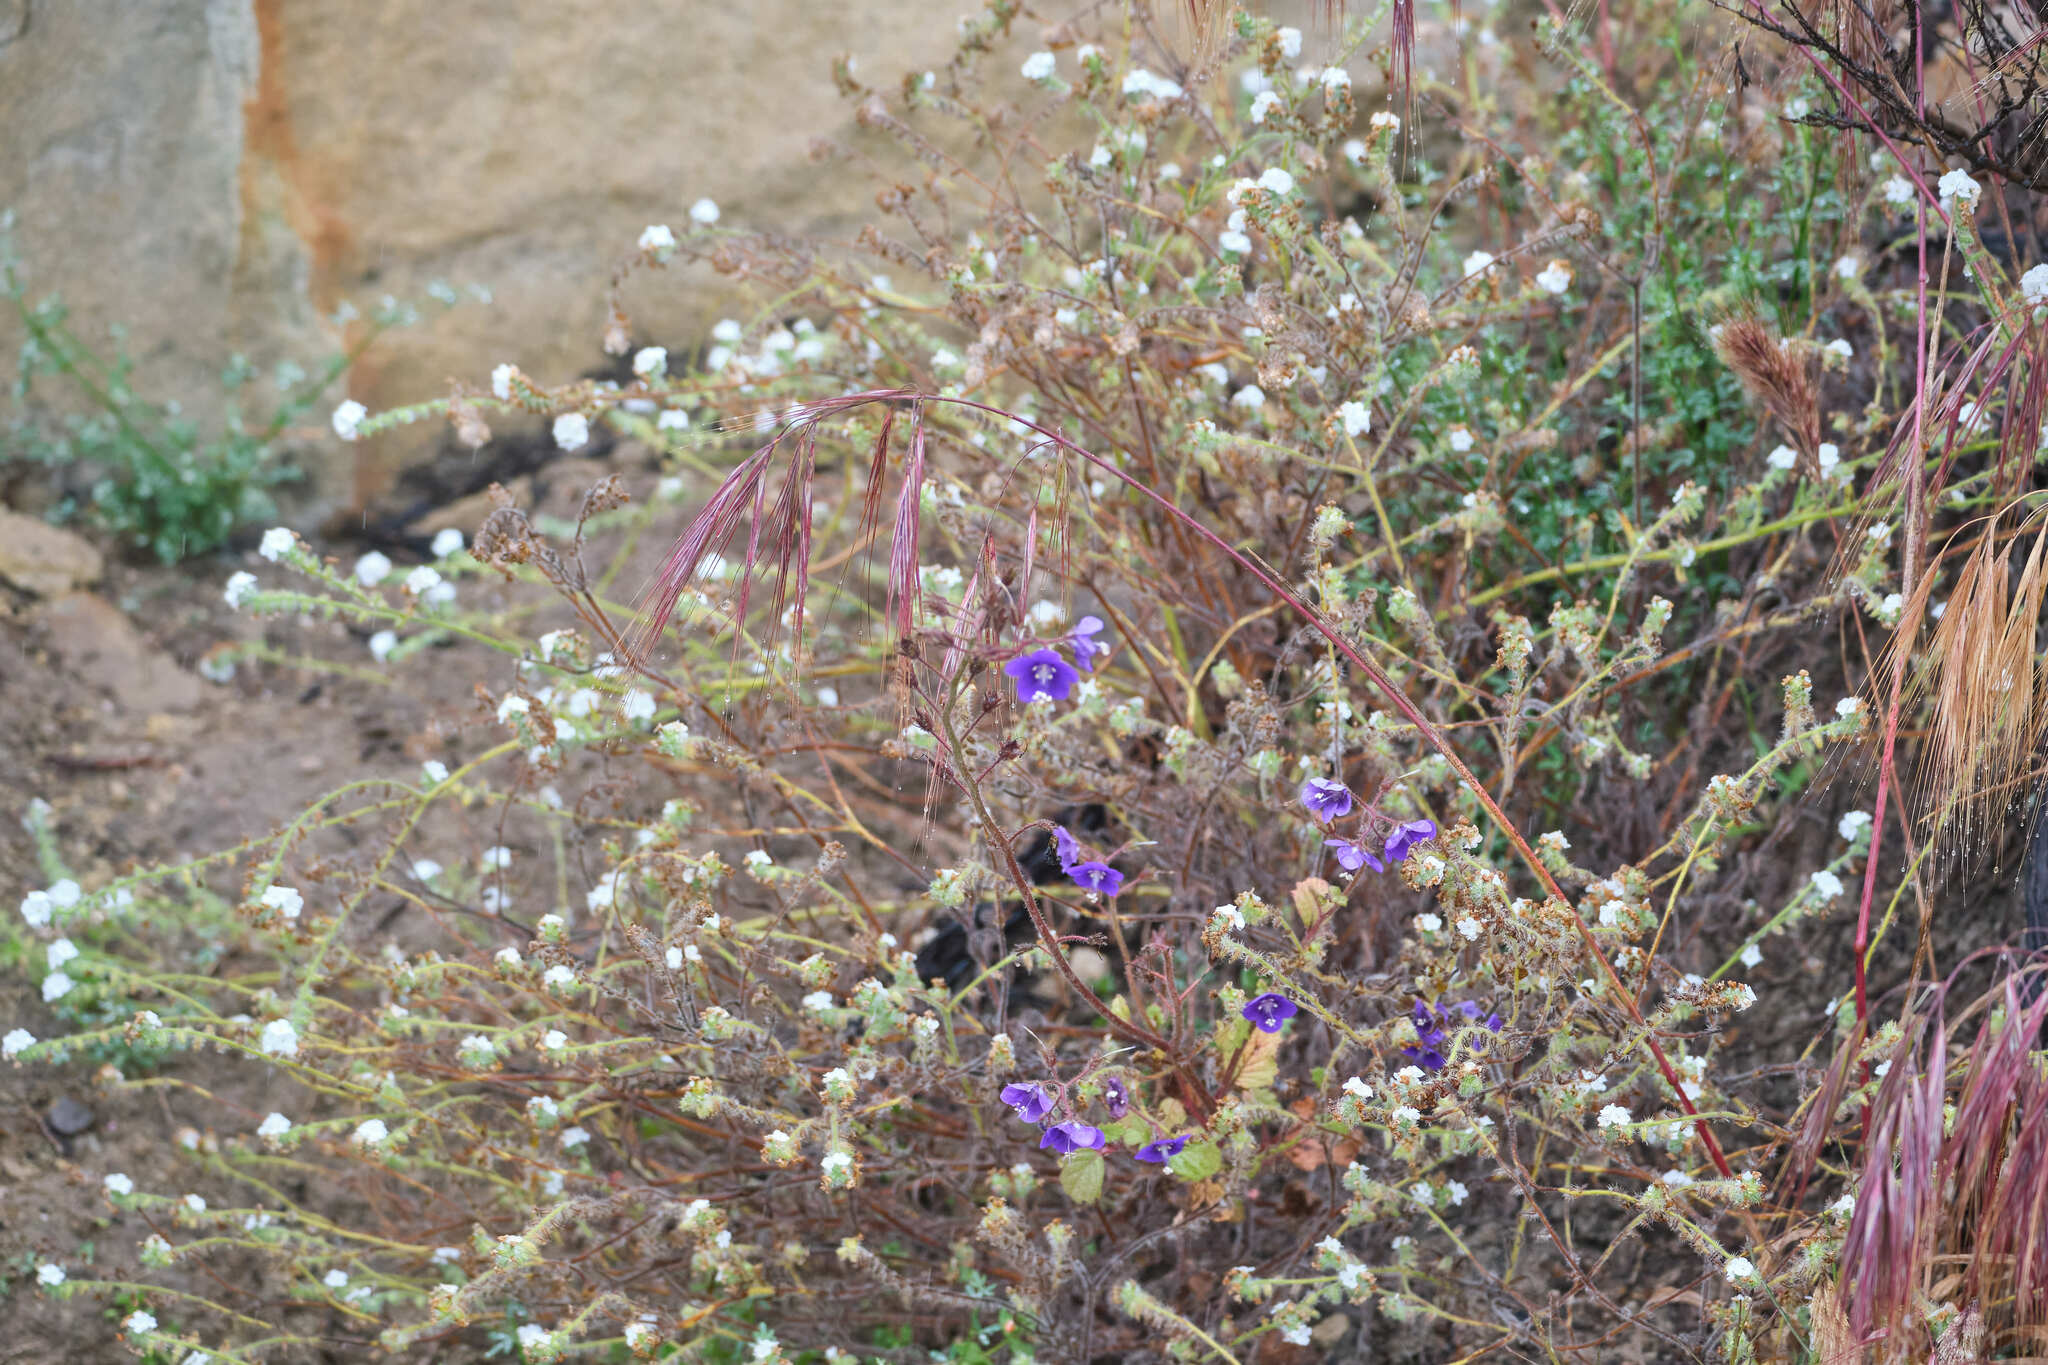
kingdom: Plantae
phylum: Tracheophyta
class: Magnoliopsida
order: Boraginales
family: Hydrophyllaceae
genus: Phacelia
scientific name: Phacelia parryi
